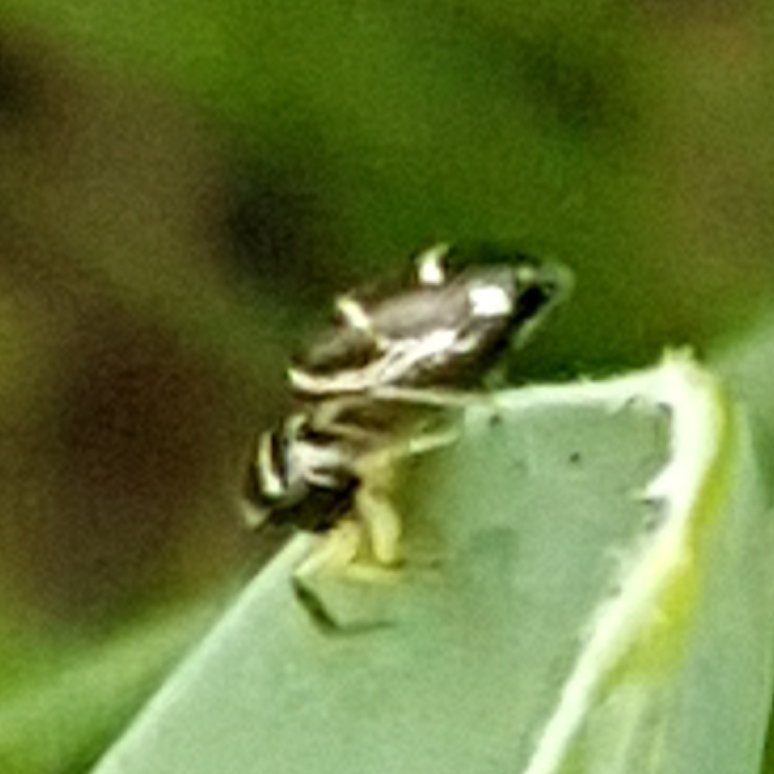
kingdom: Animalia
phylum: Arthropoda
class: Arachnida
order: Araneae
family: Salticidae
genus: Heliophanus
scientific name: Heliophanus cupreus
